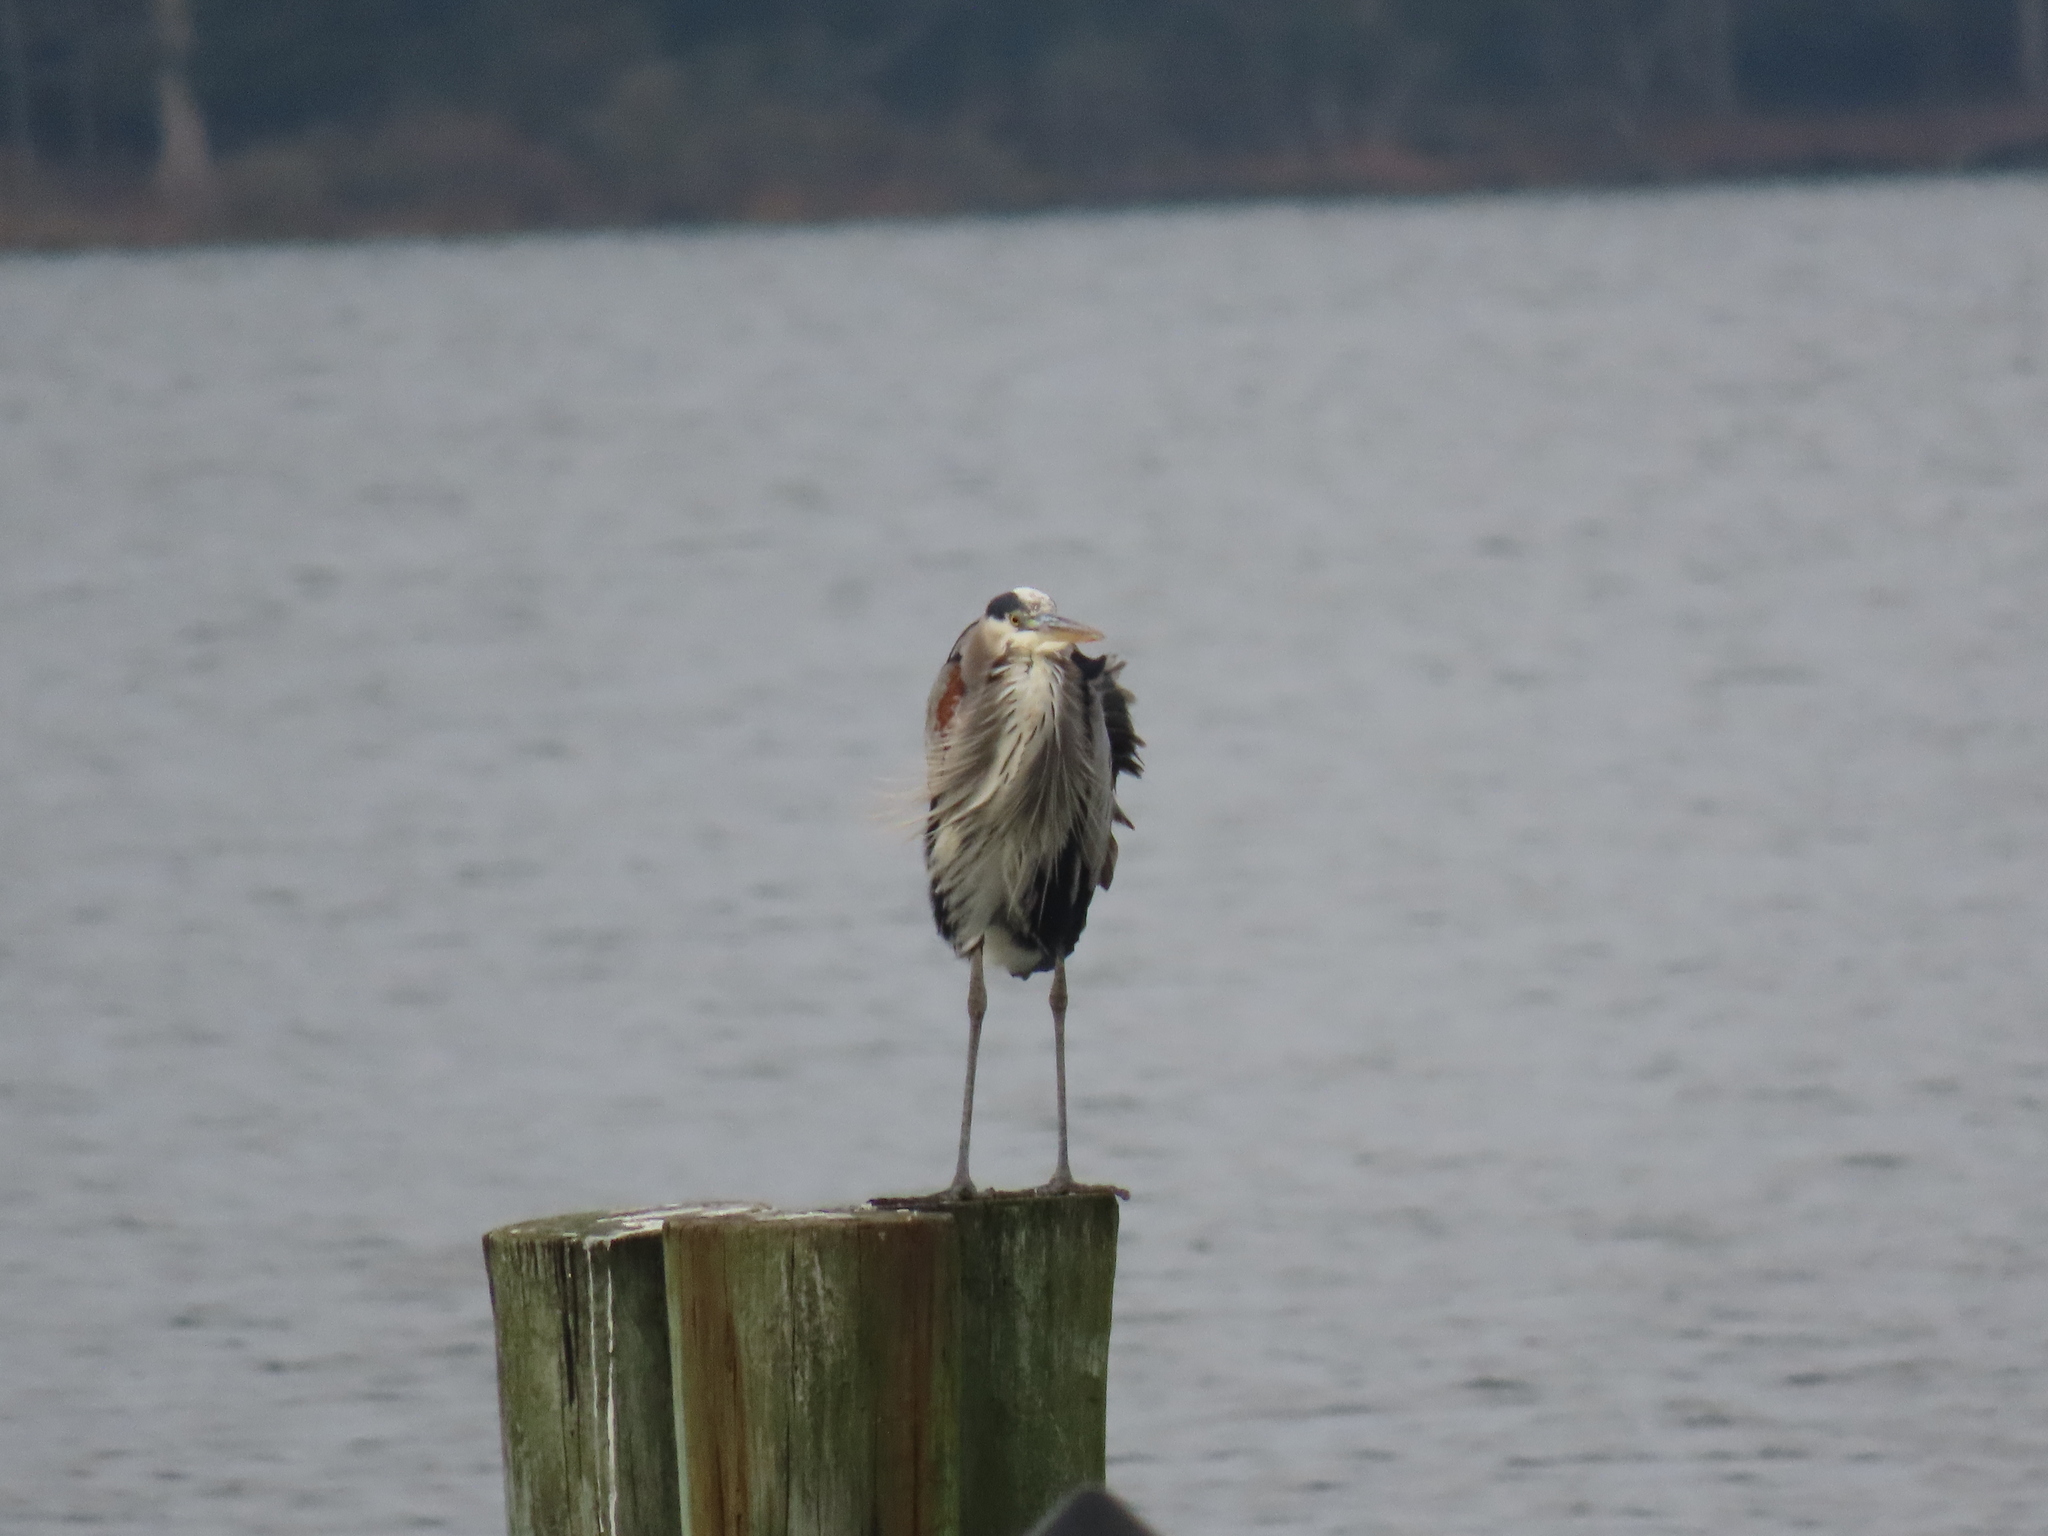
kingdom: Animalia
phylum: Chordata
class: Aves
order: Pelecaniformes
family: Ardeidae
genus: Ardea
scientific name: Ardea herodias
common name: Great blue heron
